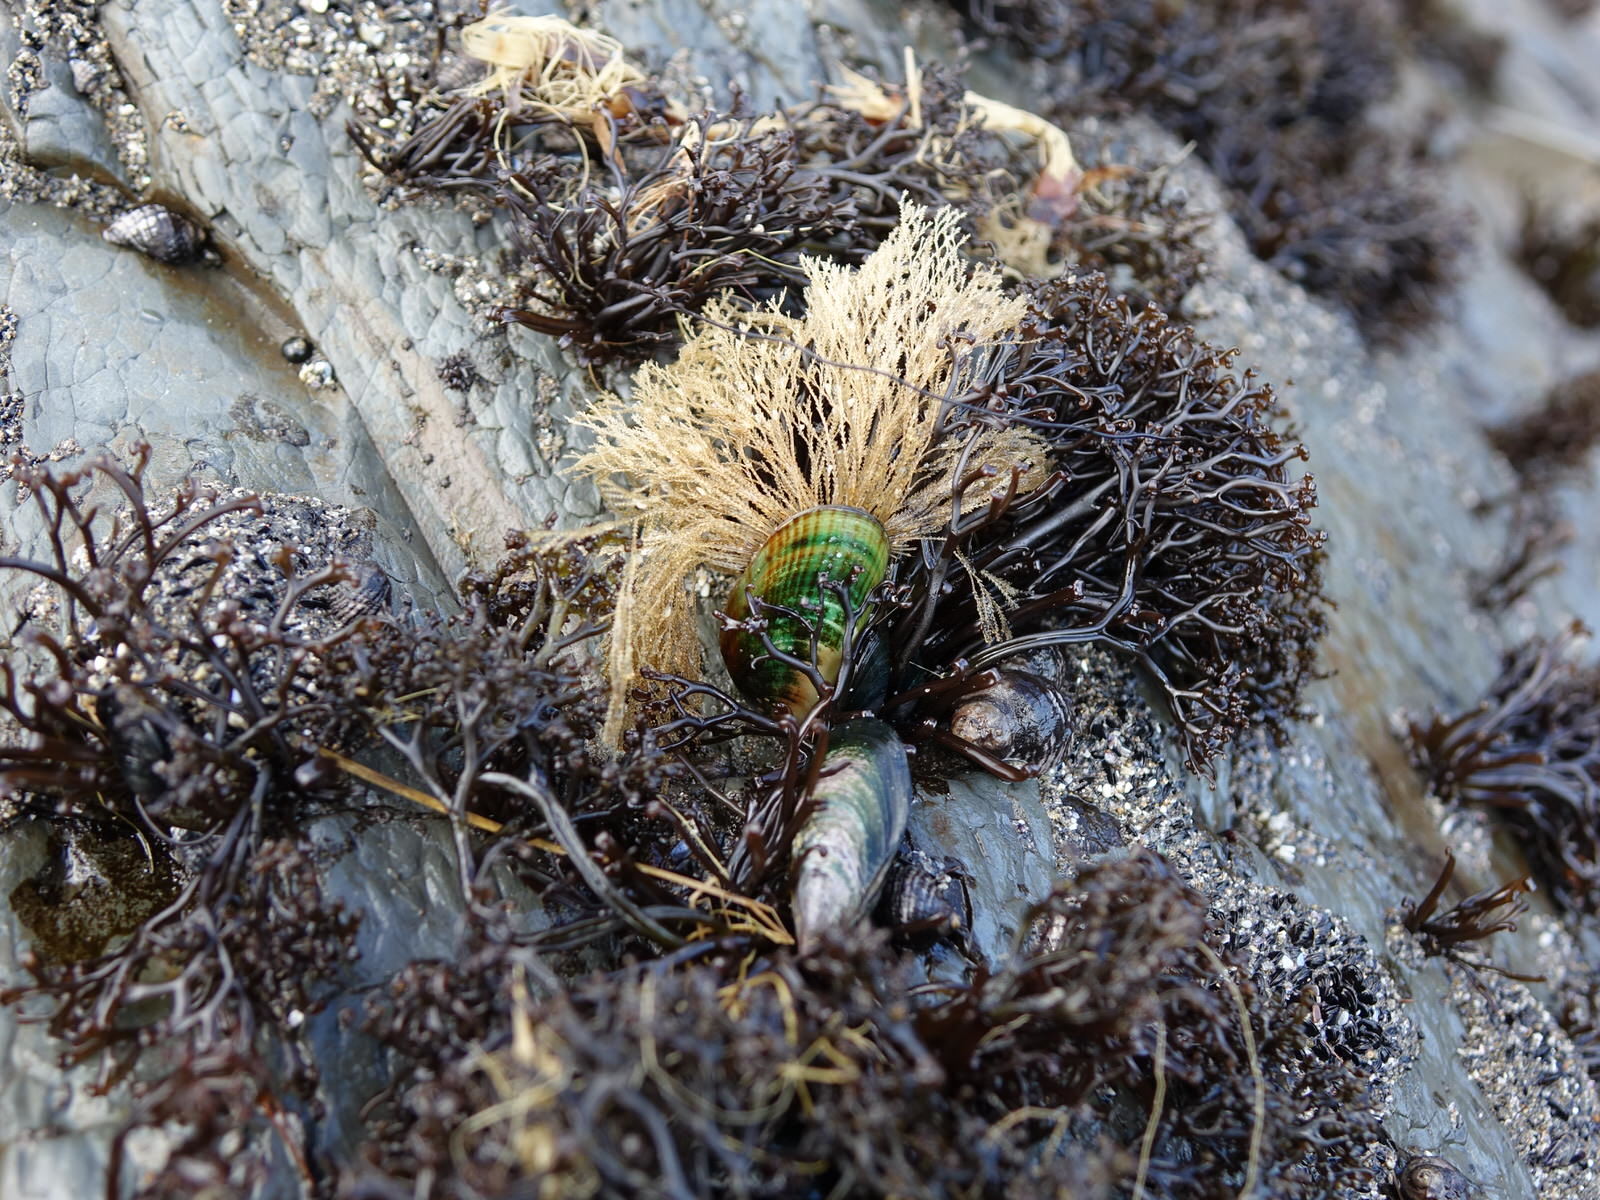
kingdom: Animalia
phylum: Cnidaria
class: Hydrozoa
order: Leptothecata
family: Sertulariidae
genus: Amphisbetia
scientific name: Amphisbetia bispinosa
